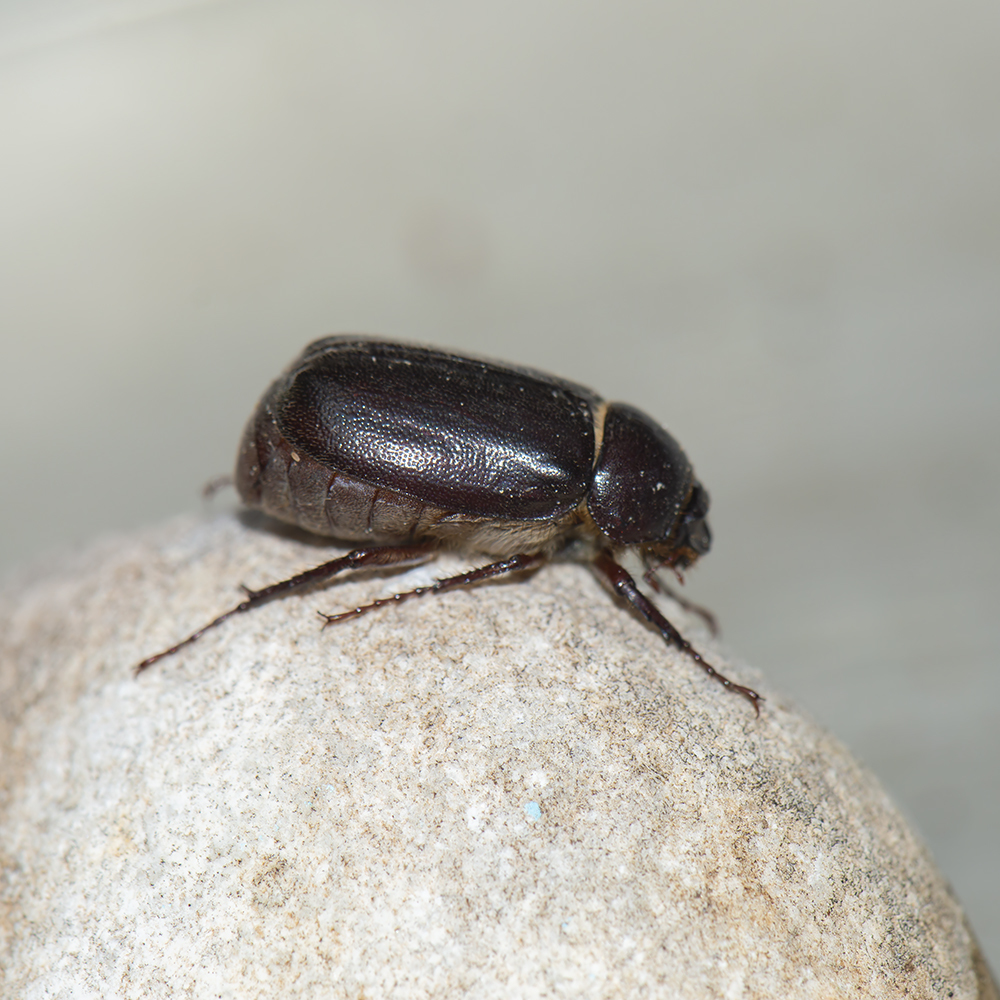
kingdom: Animalia
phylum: Arthropoda
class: Insecta
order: Coleoptera
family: Scarabaeidae
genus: Aplidia
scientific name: Aplidia transversa
